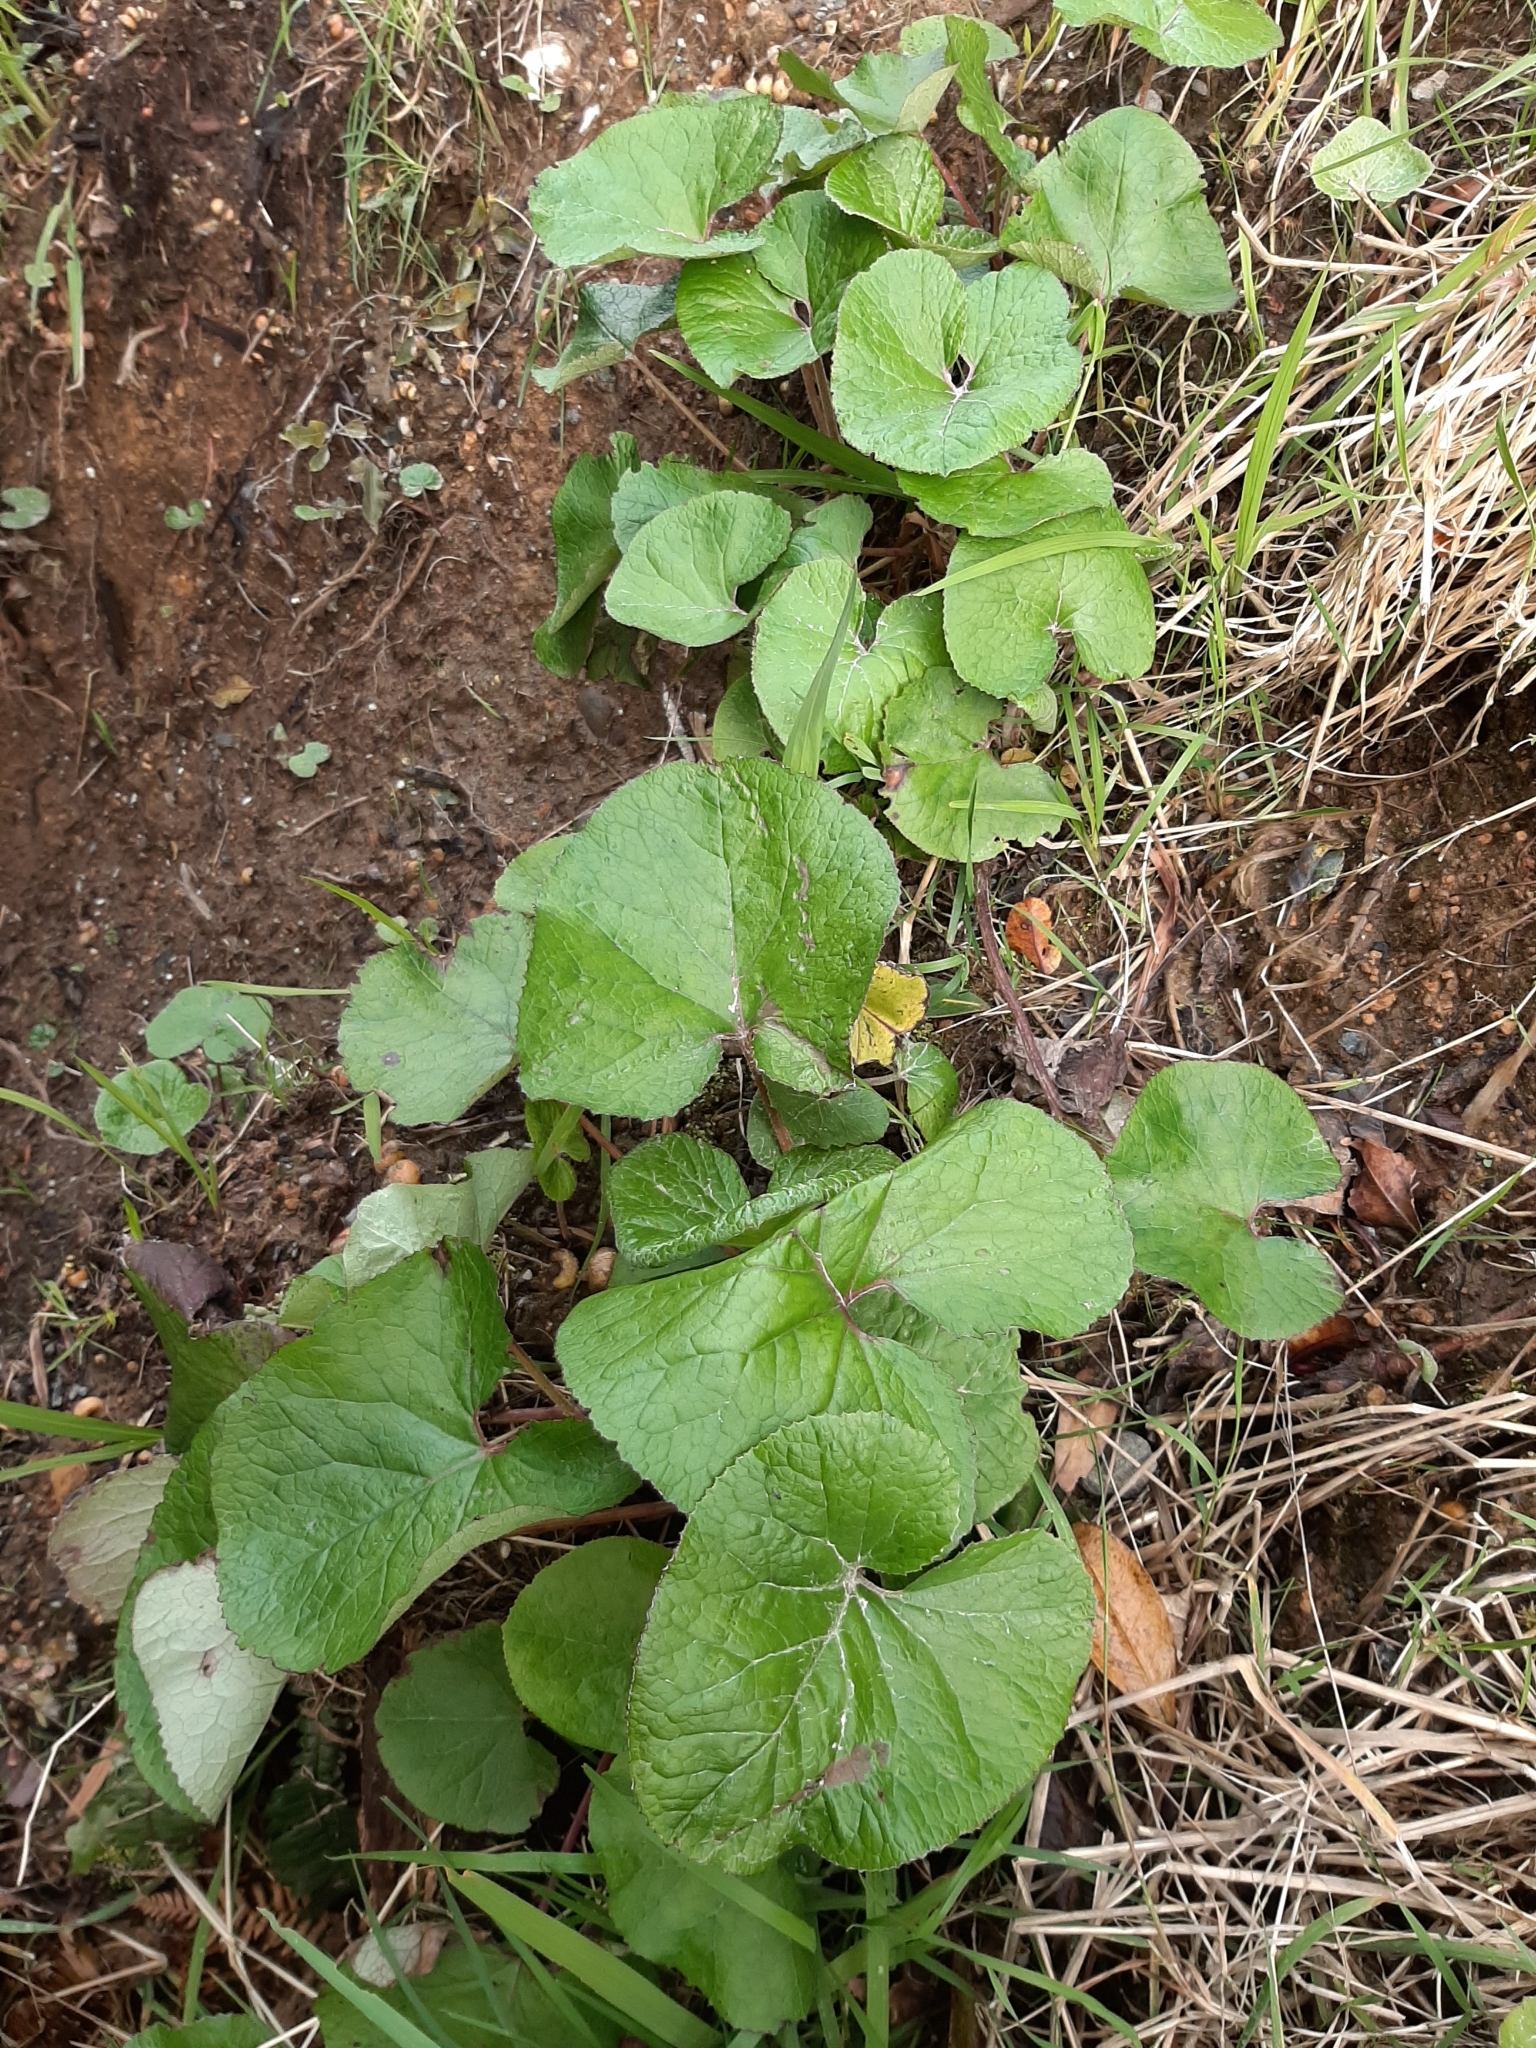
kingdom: Plantae
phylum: Tracheophyta
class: Magnoliopsida
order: Asterales
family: Asteraceae
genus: Petasites
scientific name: Petasites pyrenaicus
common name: Winter heliotrope
